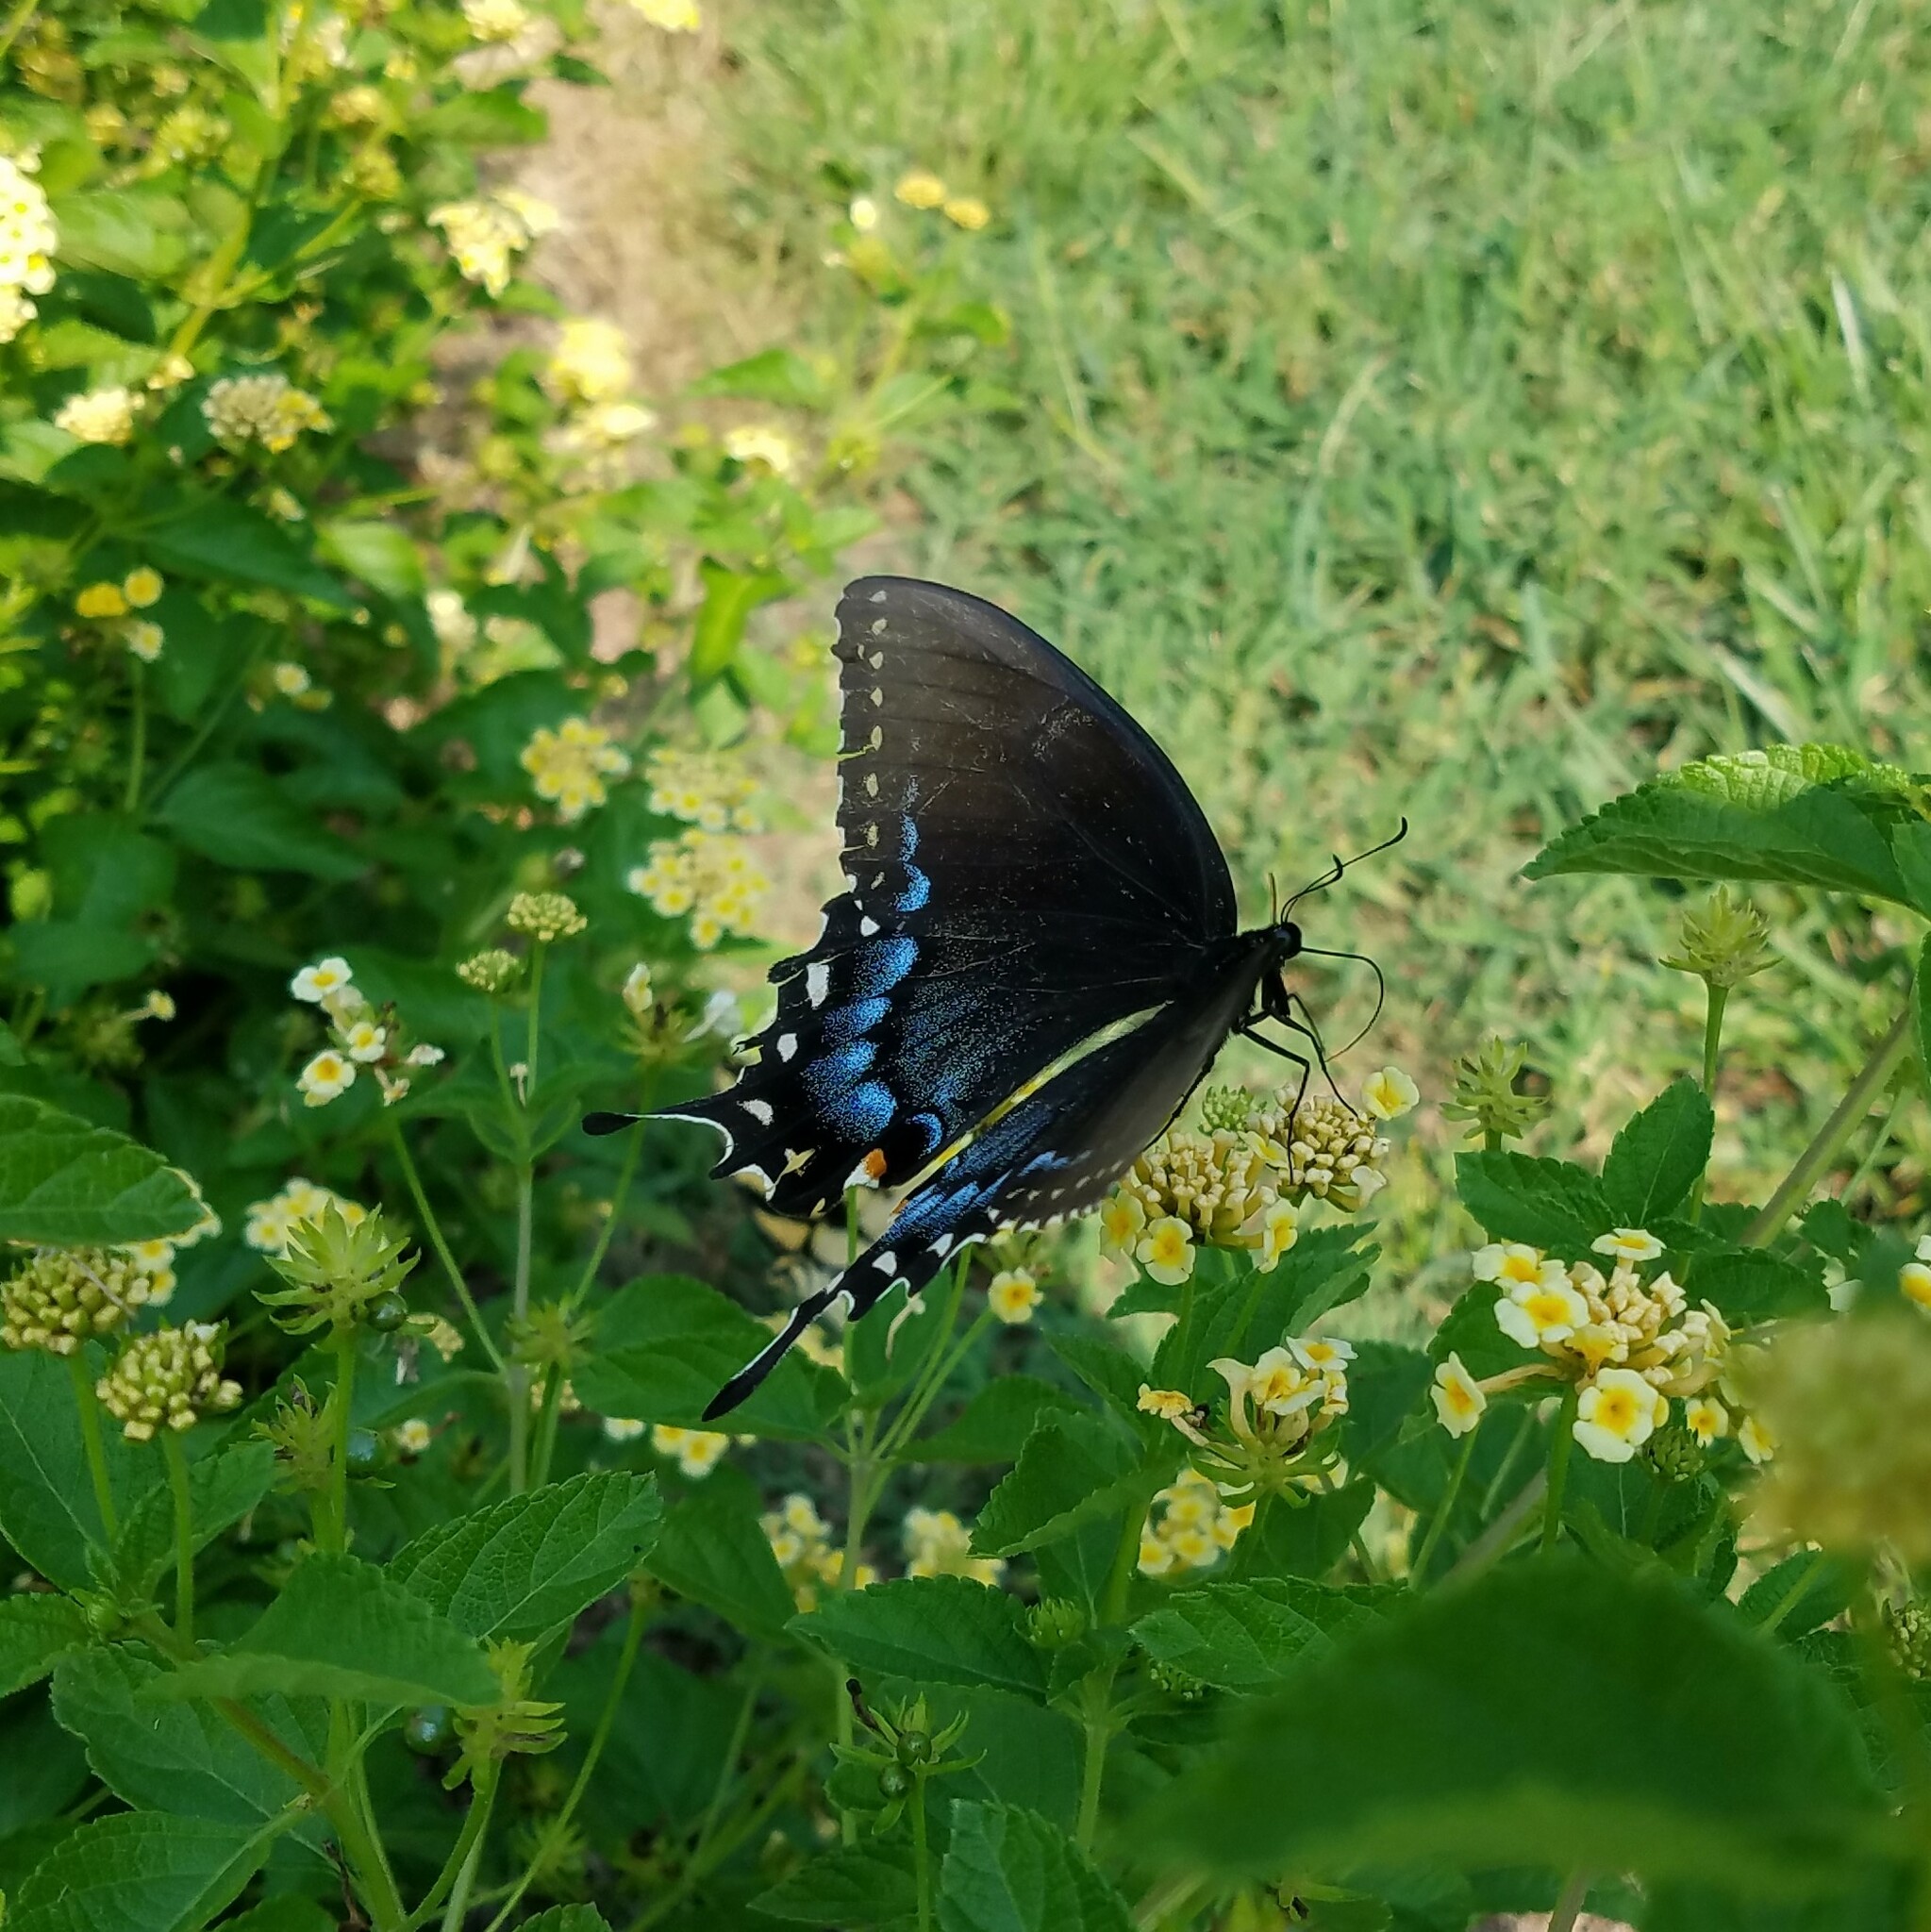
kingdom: Animalia
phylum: Arthropoda
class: Insecta
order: Lepidoptera
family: Papilionidae
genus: Papilio
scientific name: Papilio glaucus
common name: Tiger swallowtail
